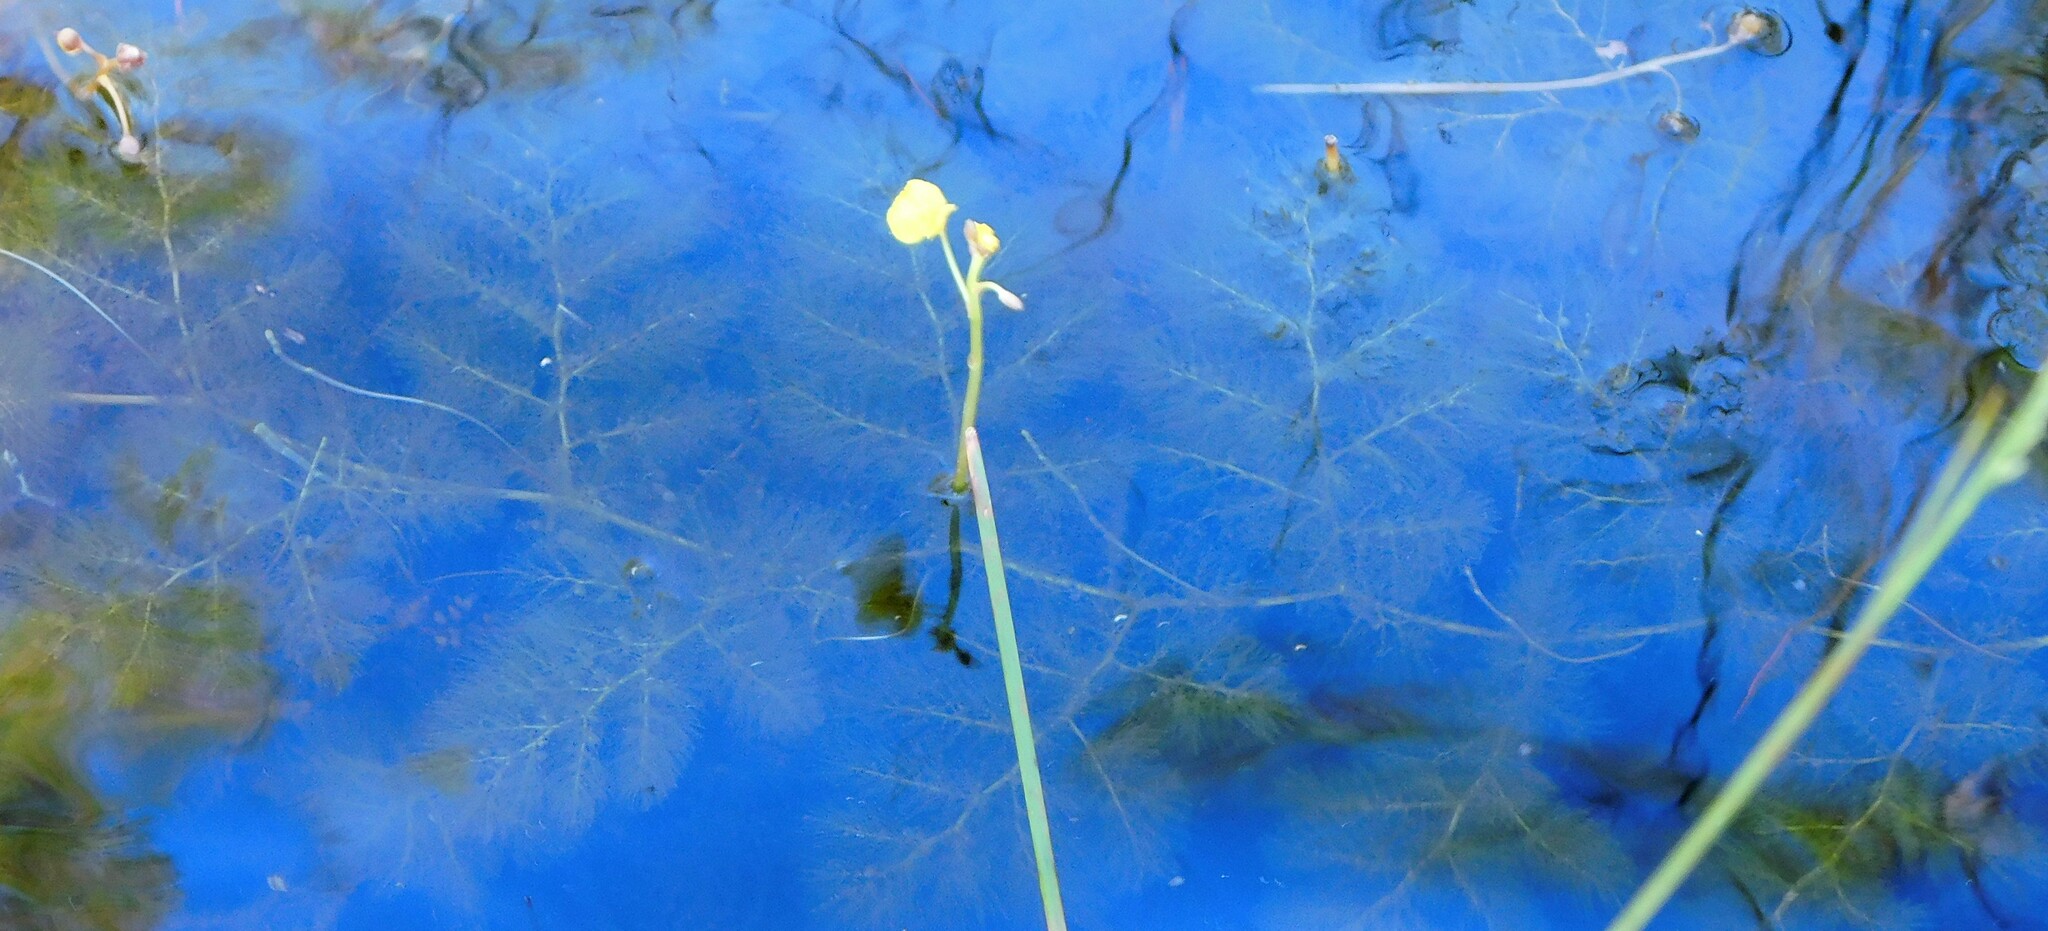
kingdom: Plantae
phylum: Tracheophyta
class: Magnoliopsida
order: Lamiales
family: Lentibulariaceae
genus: Utricularia
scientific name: Utricularia foliosa
